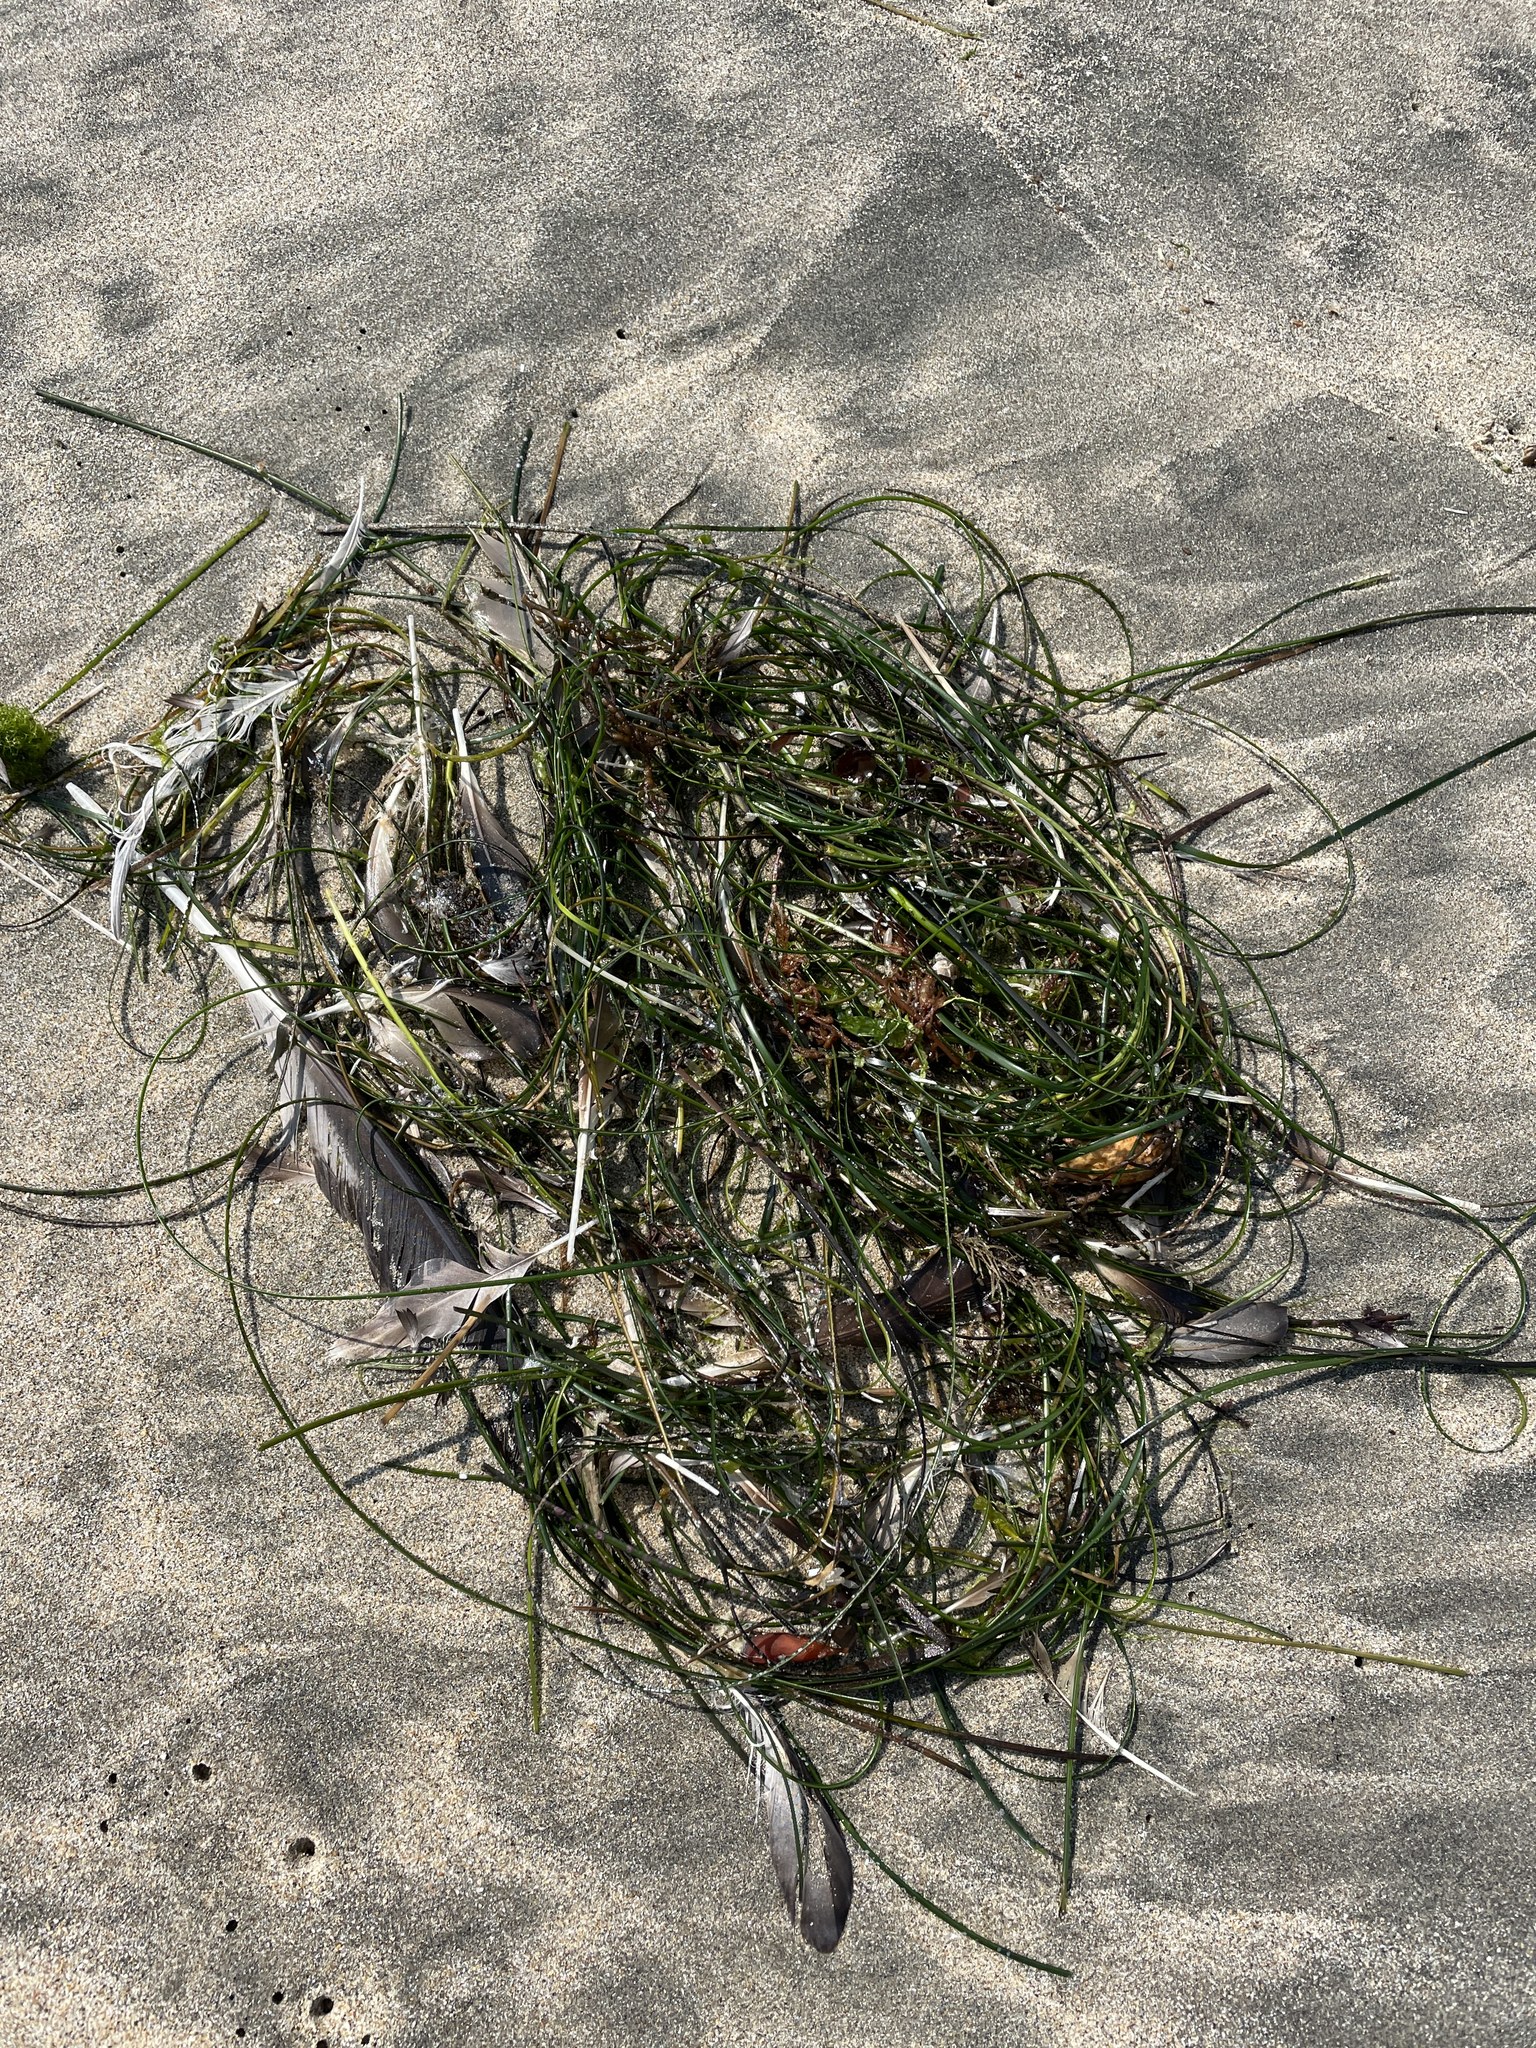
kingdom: Plantae
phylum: Tracheophyta
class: Liliopsida
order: Alismatales
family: Zosteraceae
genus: Phyllospadix
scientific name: Phyllospadix torreyi
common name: Surfgrass
